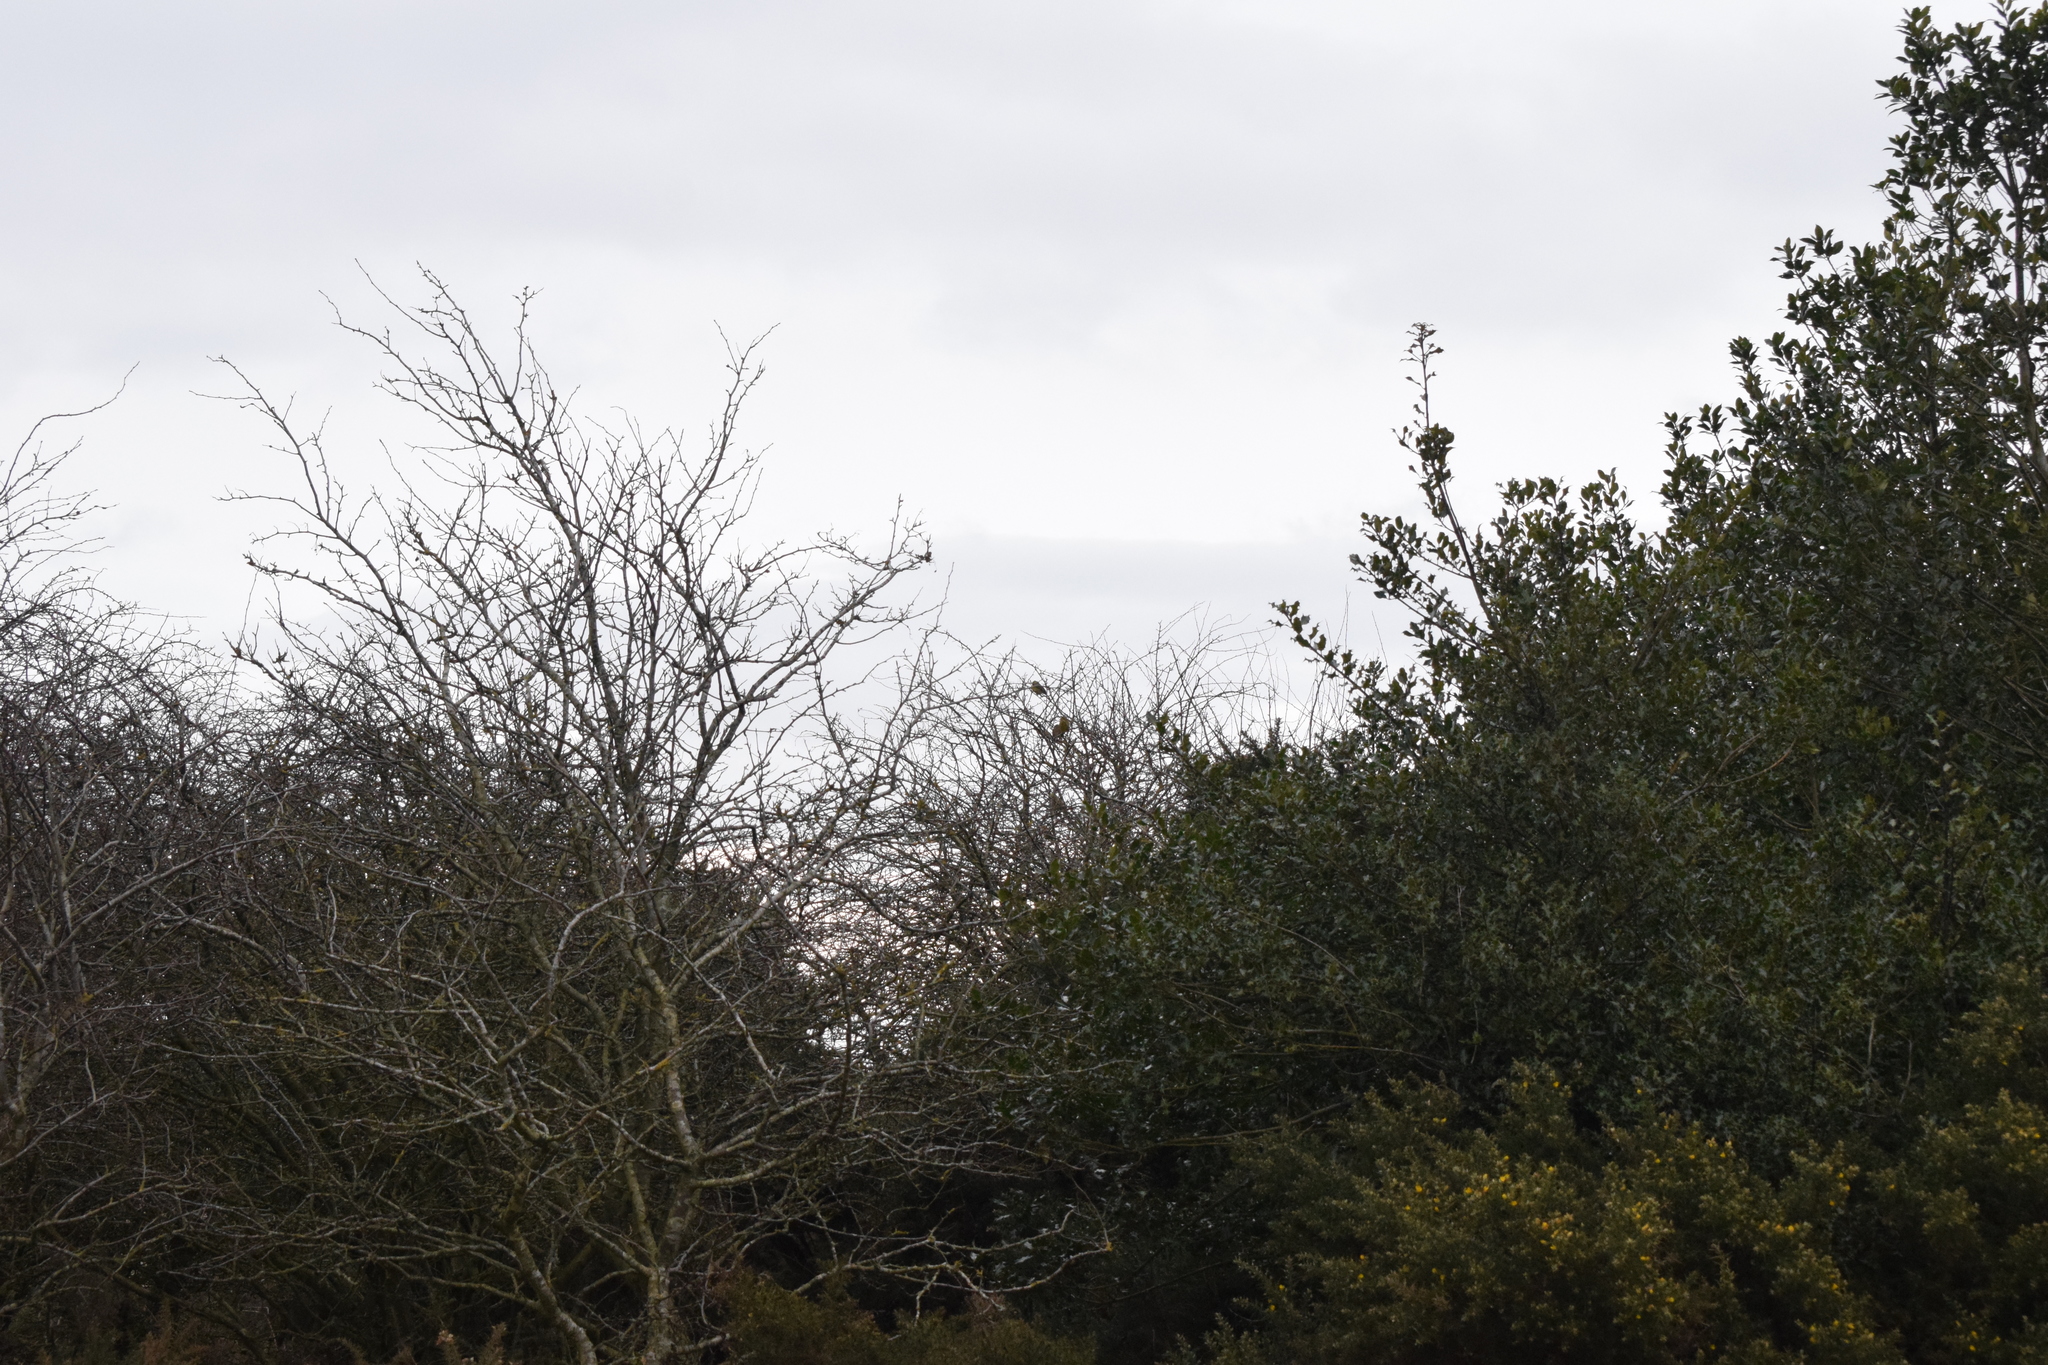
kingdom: Animalia
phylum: Chordata
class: Aves
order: Passeriformes
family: Emberizidae
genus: Emberiza
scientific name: Emberiza citrinella
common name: Yellowhammer
